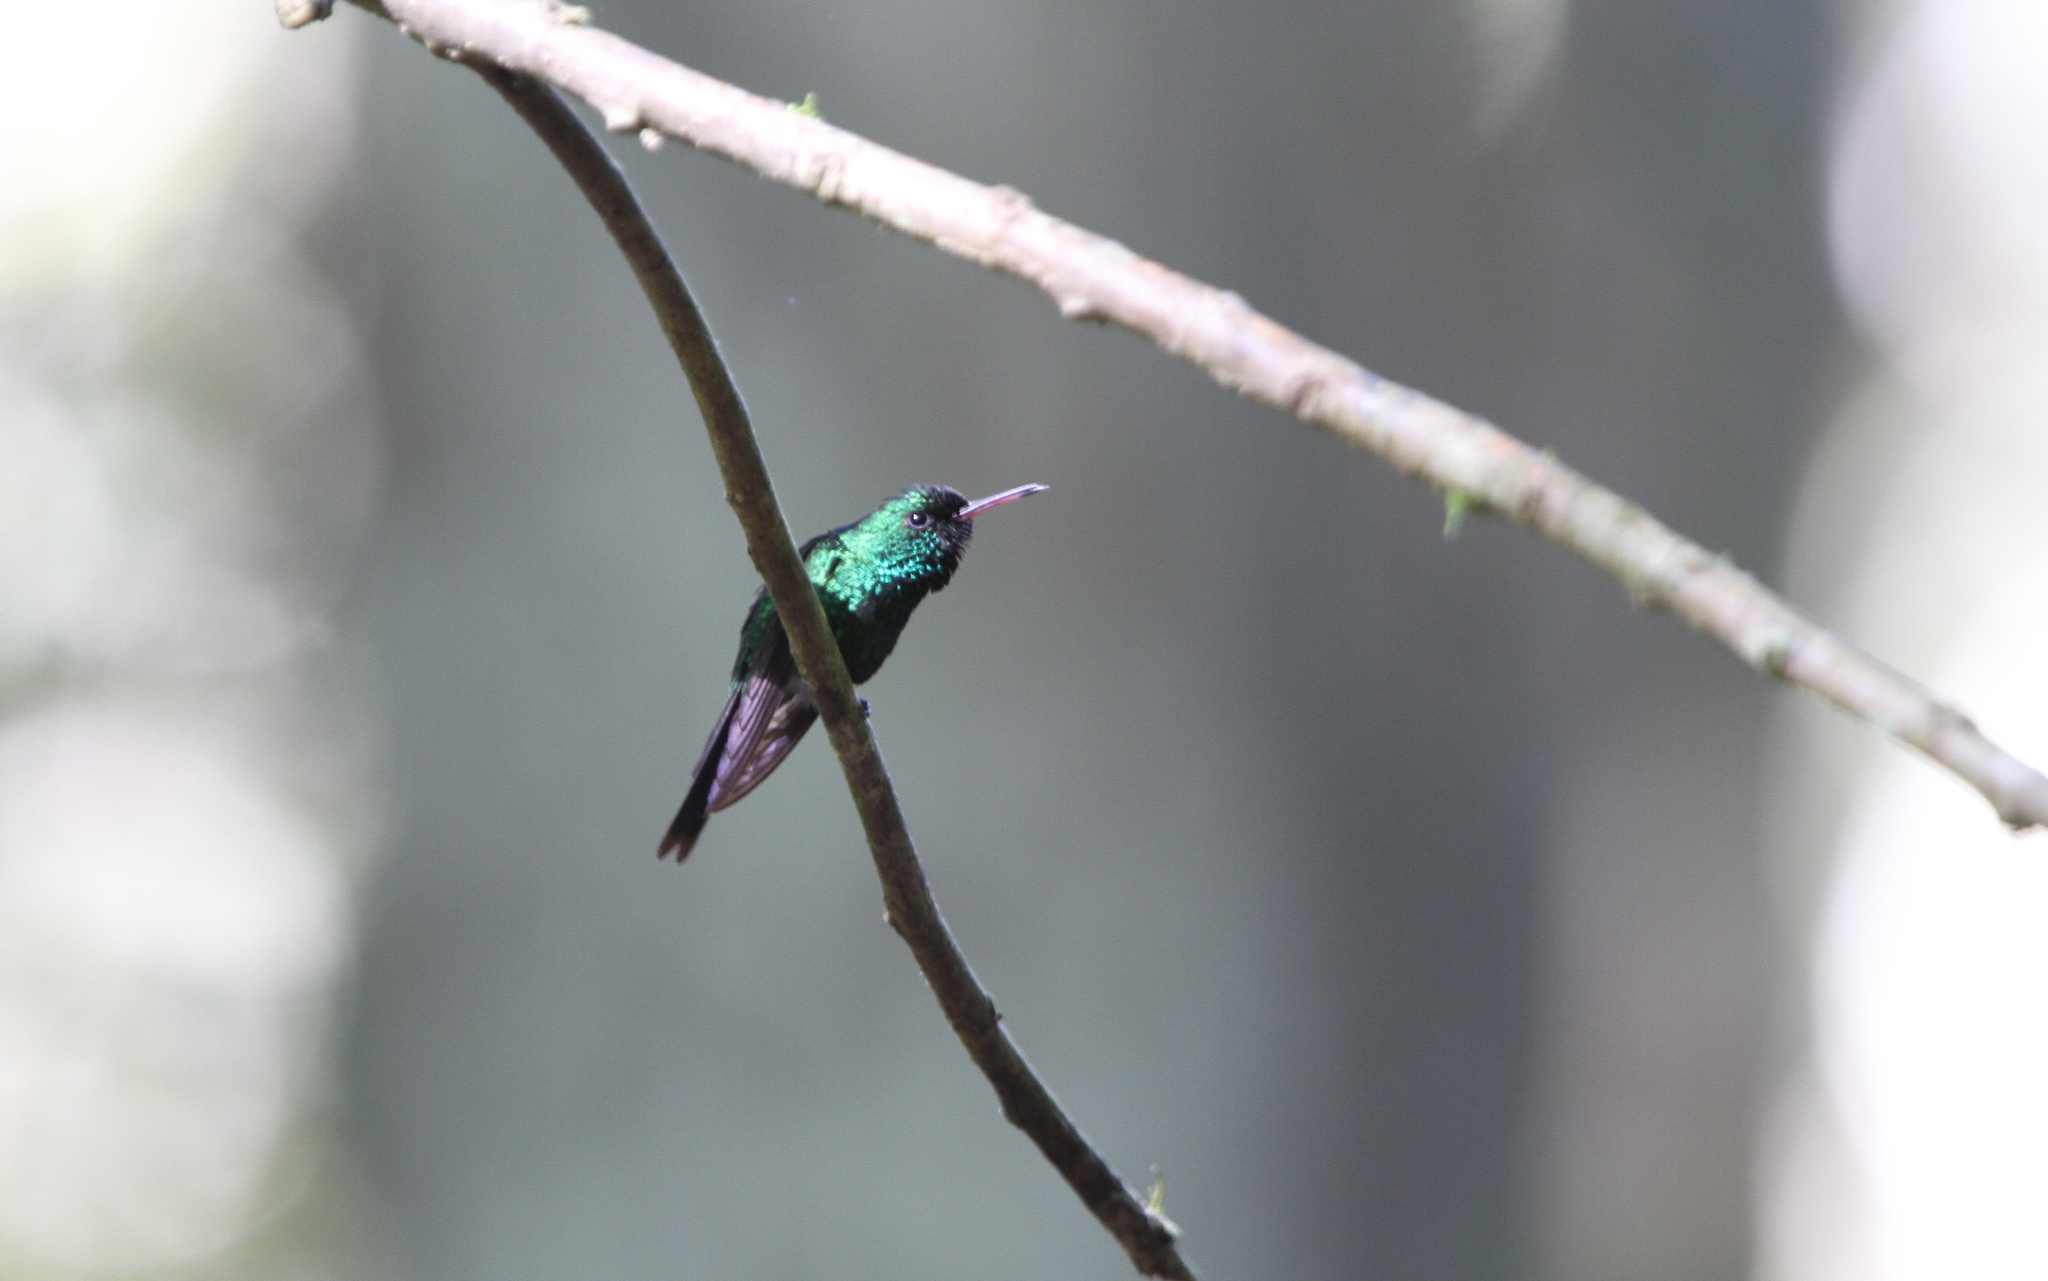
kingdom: Animalia
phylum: Chordata
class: Aves
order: Apodiformes
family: Trochilidae
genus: Riccordia
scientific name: Riccordia maugaeus
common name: Puerto rican emerald
